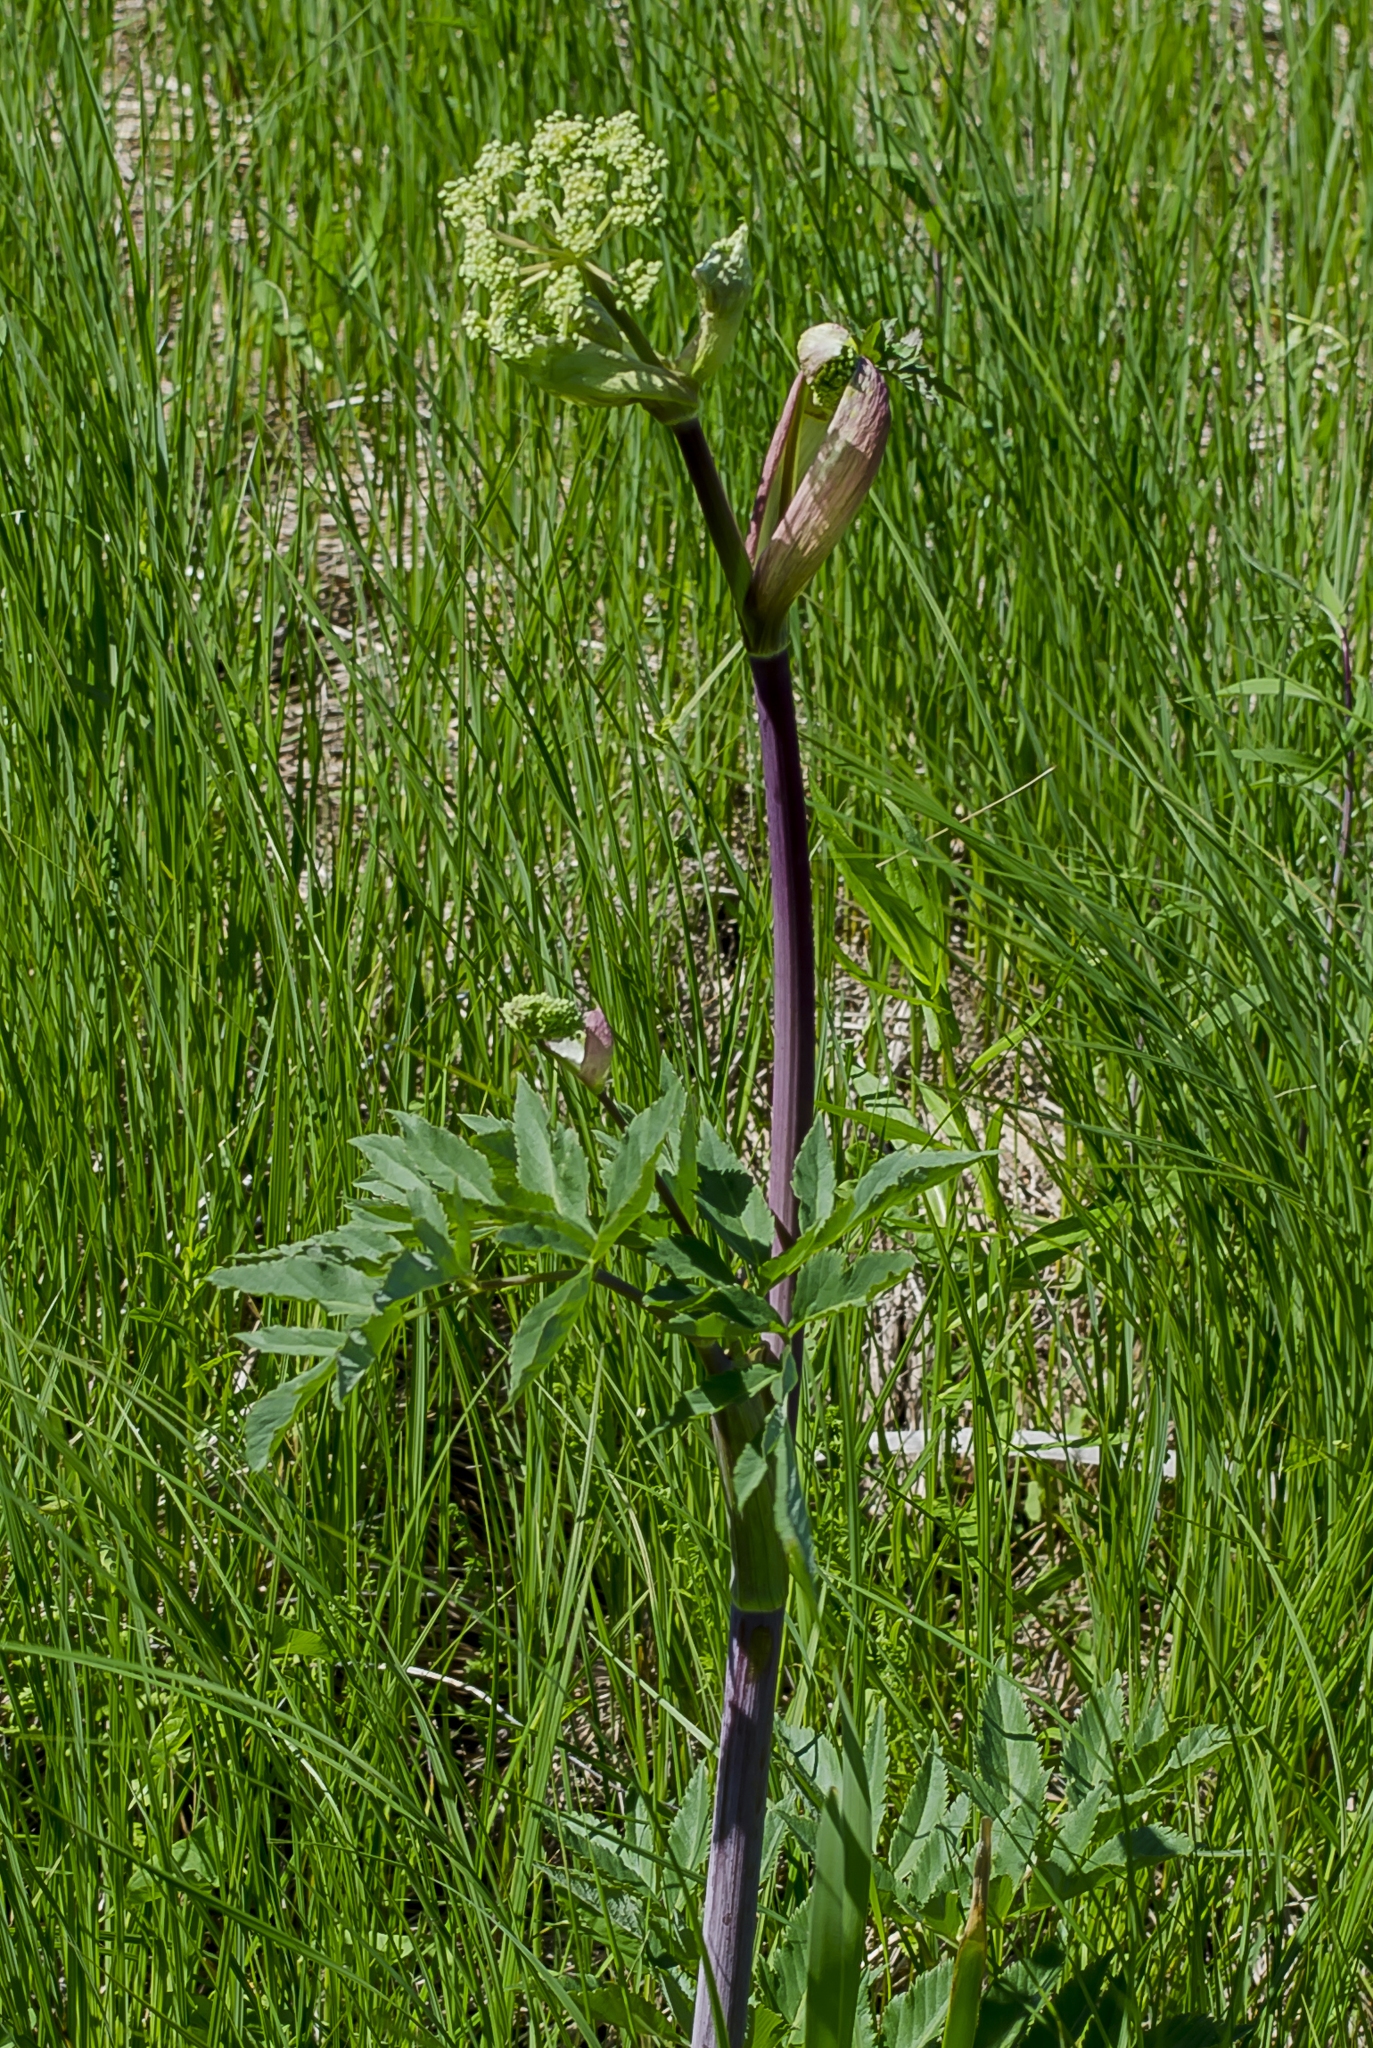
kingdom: Plantae
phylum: Tracheophyta
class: Magnoliopsida
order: Apiales
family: Apiaceae
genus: Angelica
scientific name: Angelica atropurpurea
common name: Great angelica
